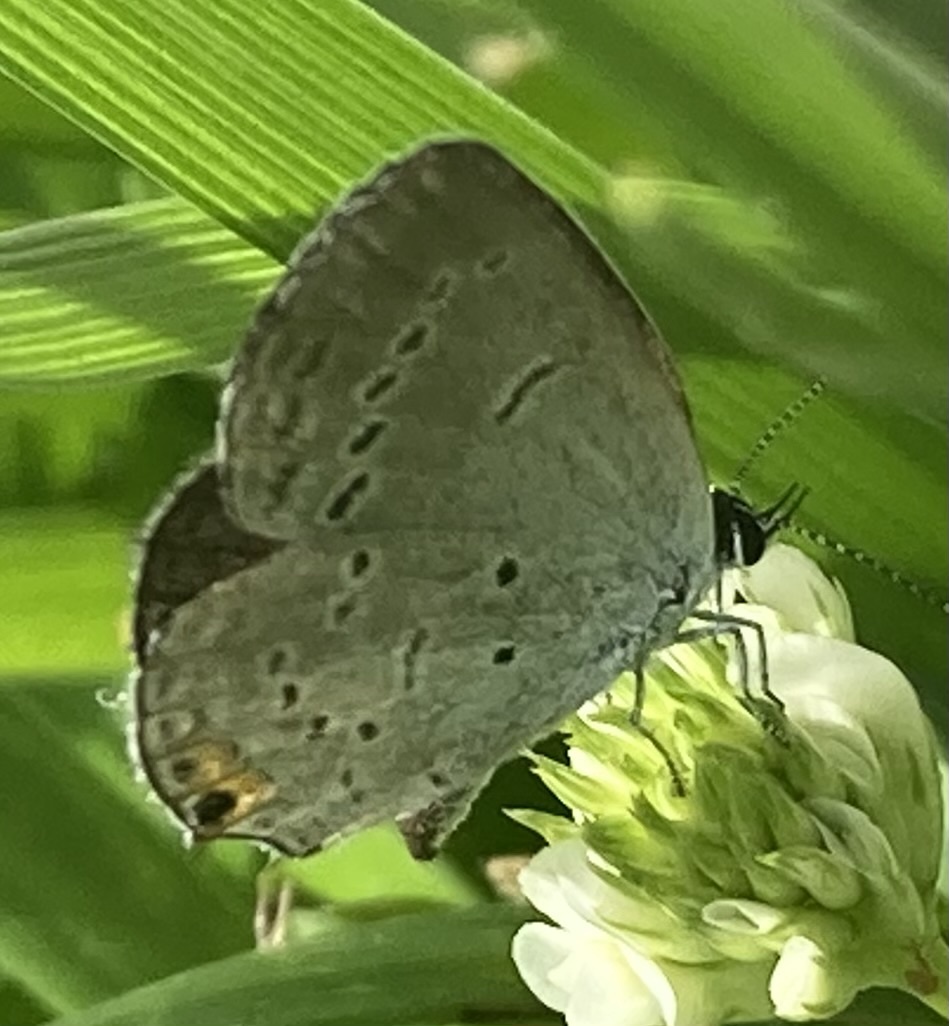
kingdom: Animalia
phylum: Arthropoda
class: Insecta
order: Lepidoptera
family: Lycaenidae
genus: Elkalyce
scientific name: Elkalyce comyntas
